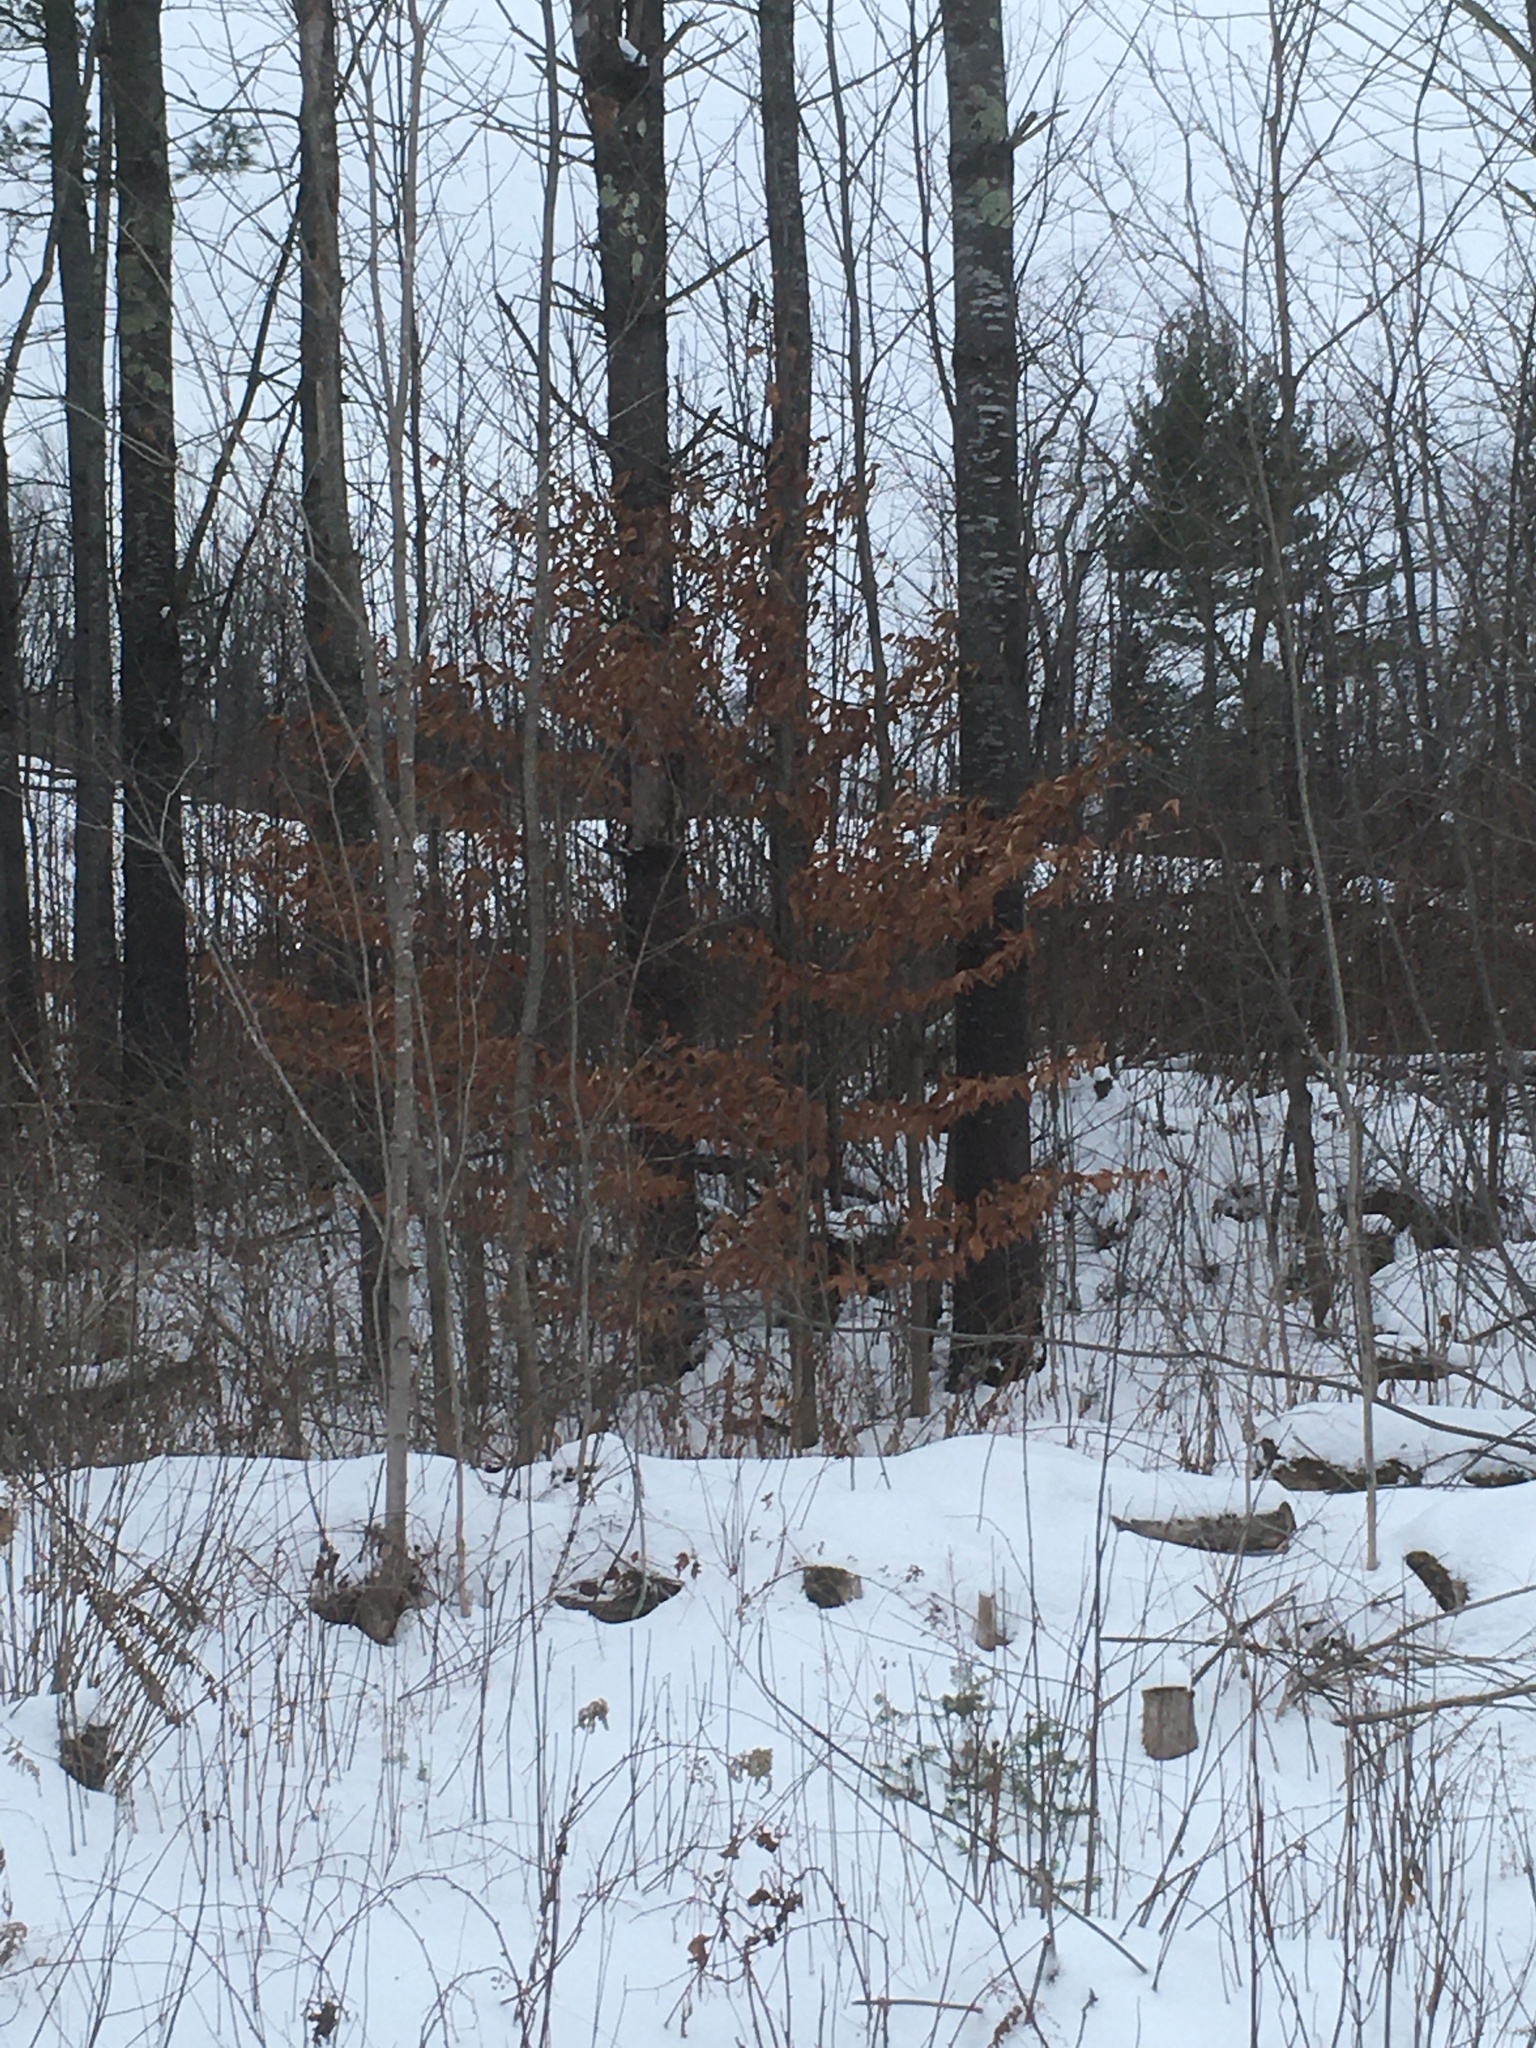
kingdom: Plantae
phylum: Tracheophyta
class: Magnoliopsida
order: Fagales
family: Fagaceae
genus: Fagus
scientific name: Fagus grandifolia
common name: American beech
